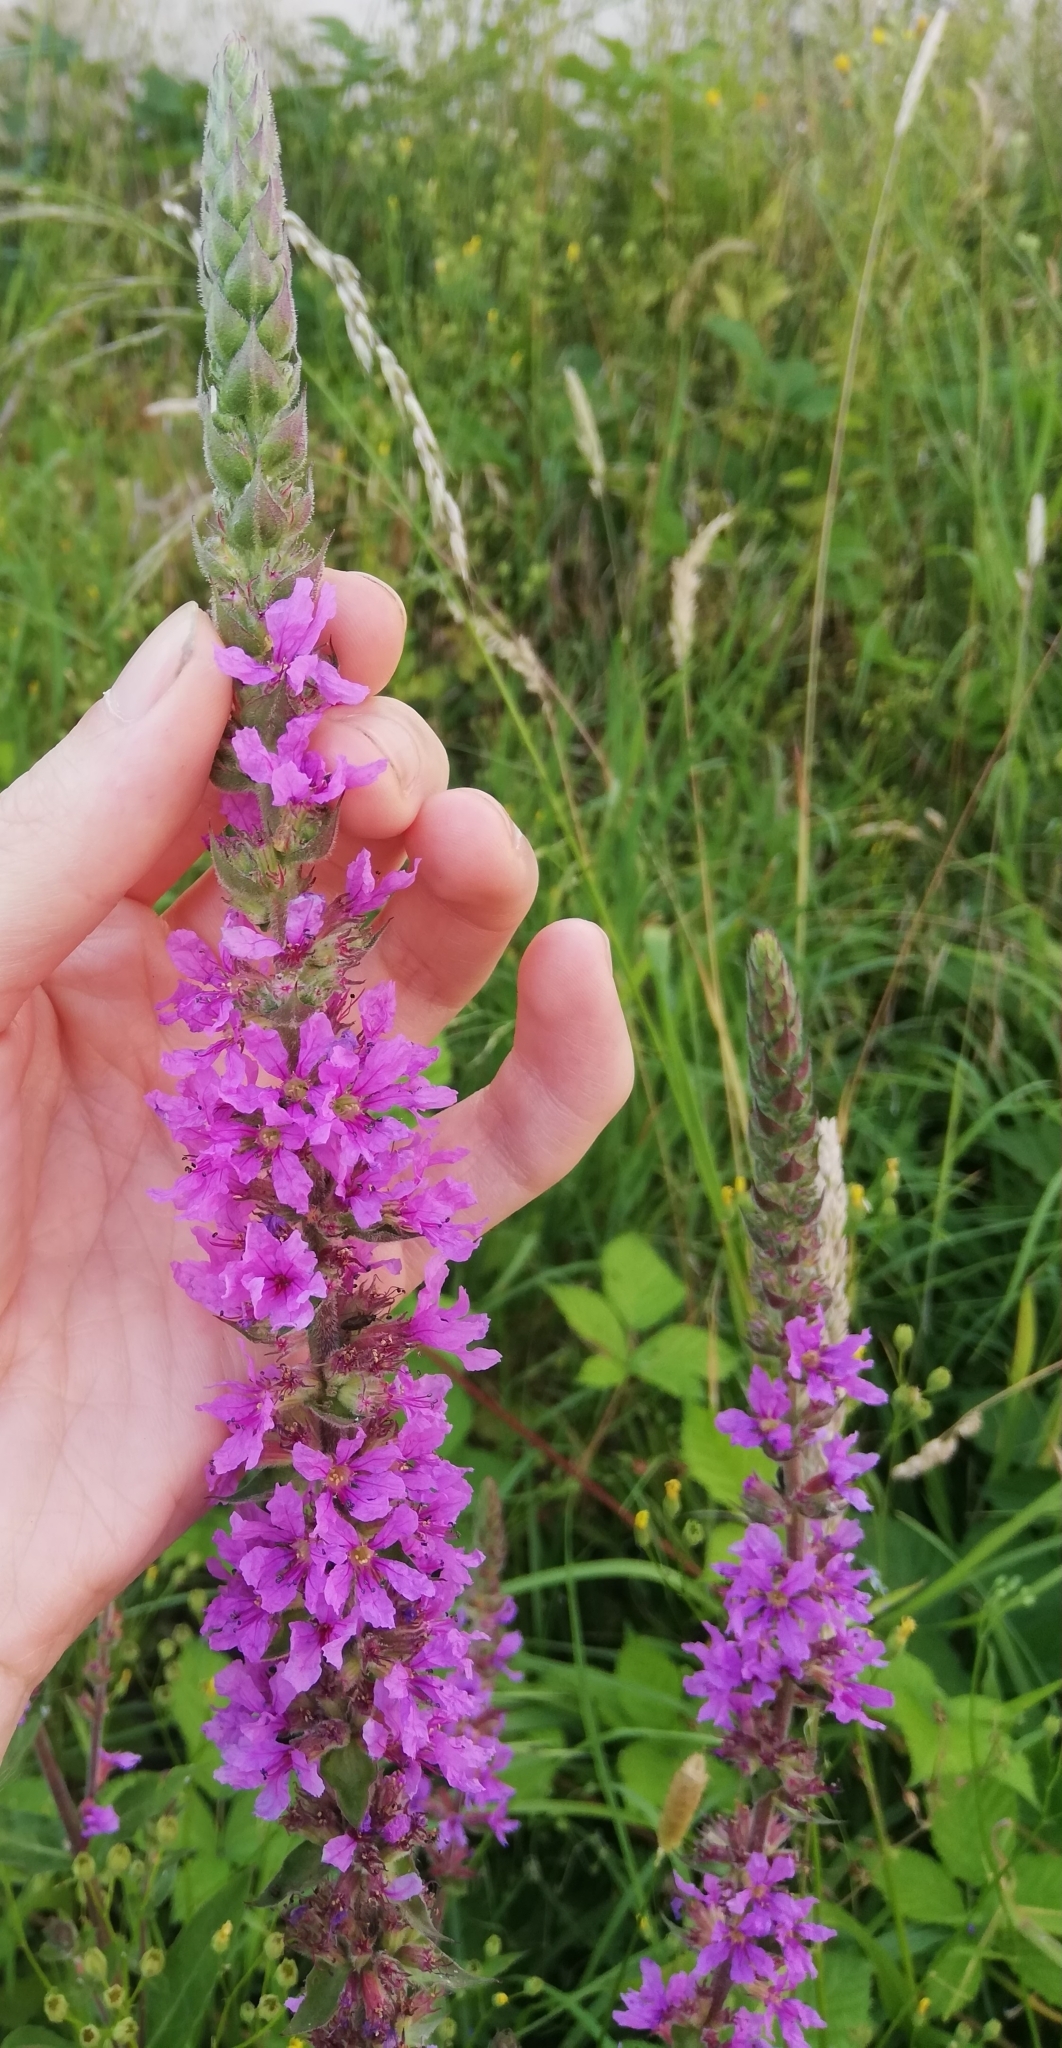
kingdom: Plantae
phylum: Tracheophyta
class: Magnoliopsida
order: Myrtales
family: Lythraceae
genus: Lythrum
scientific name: Lythrum salicaria
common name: Purple loosestrife
